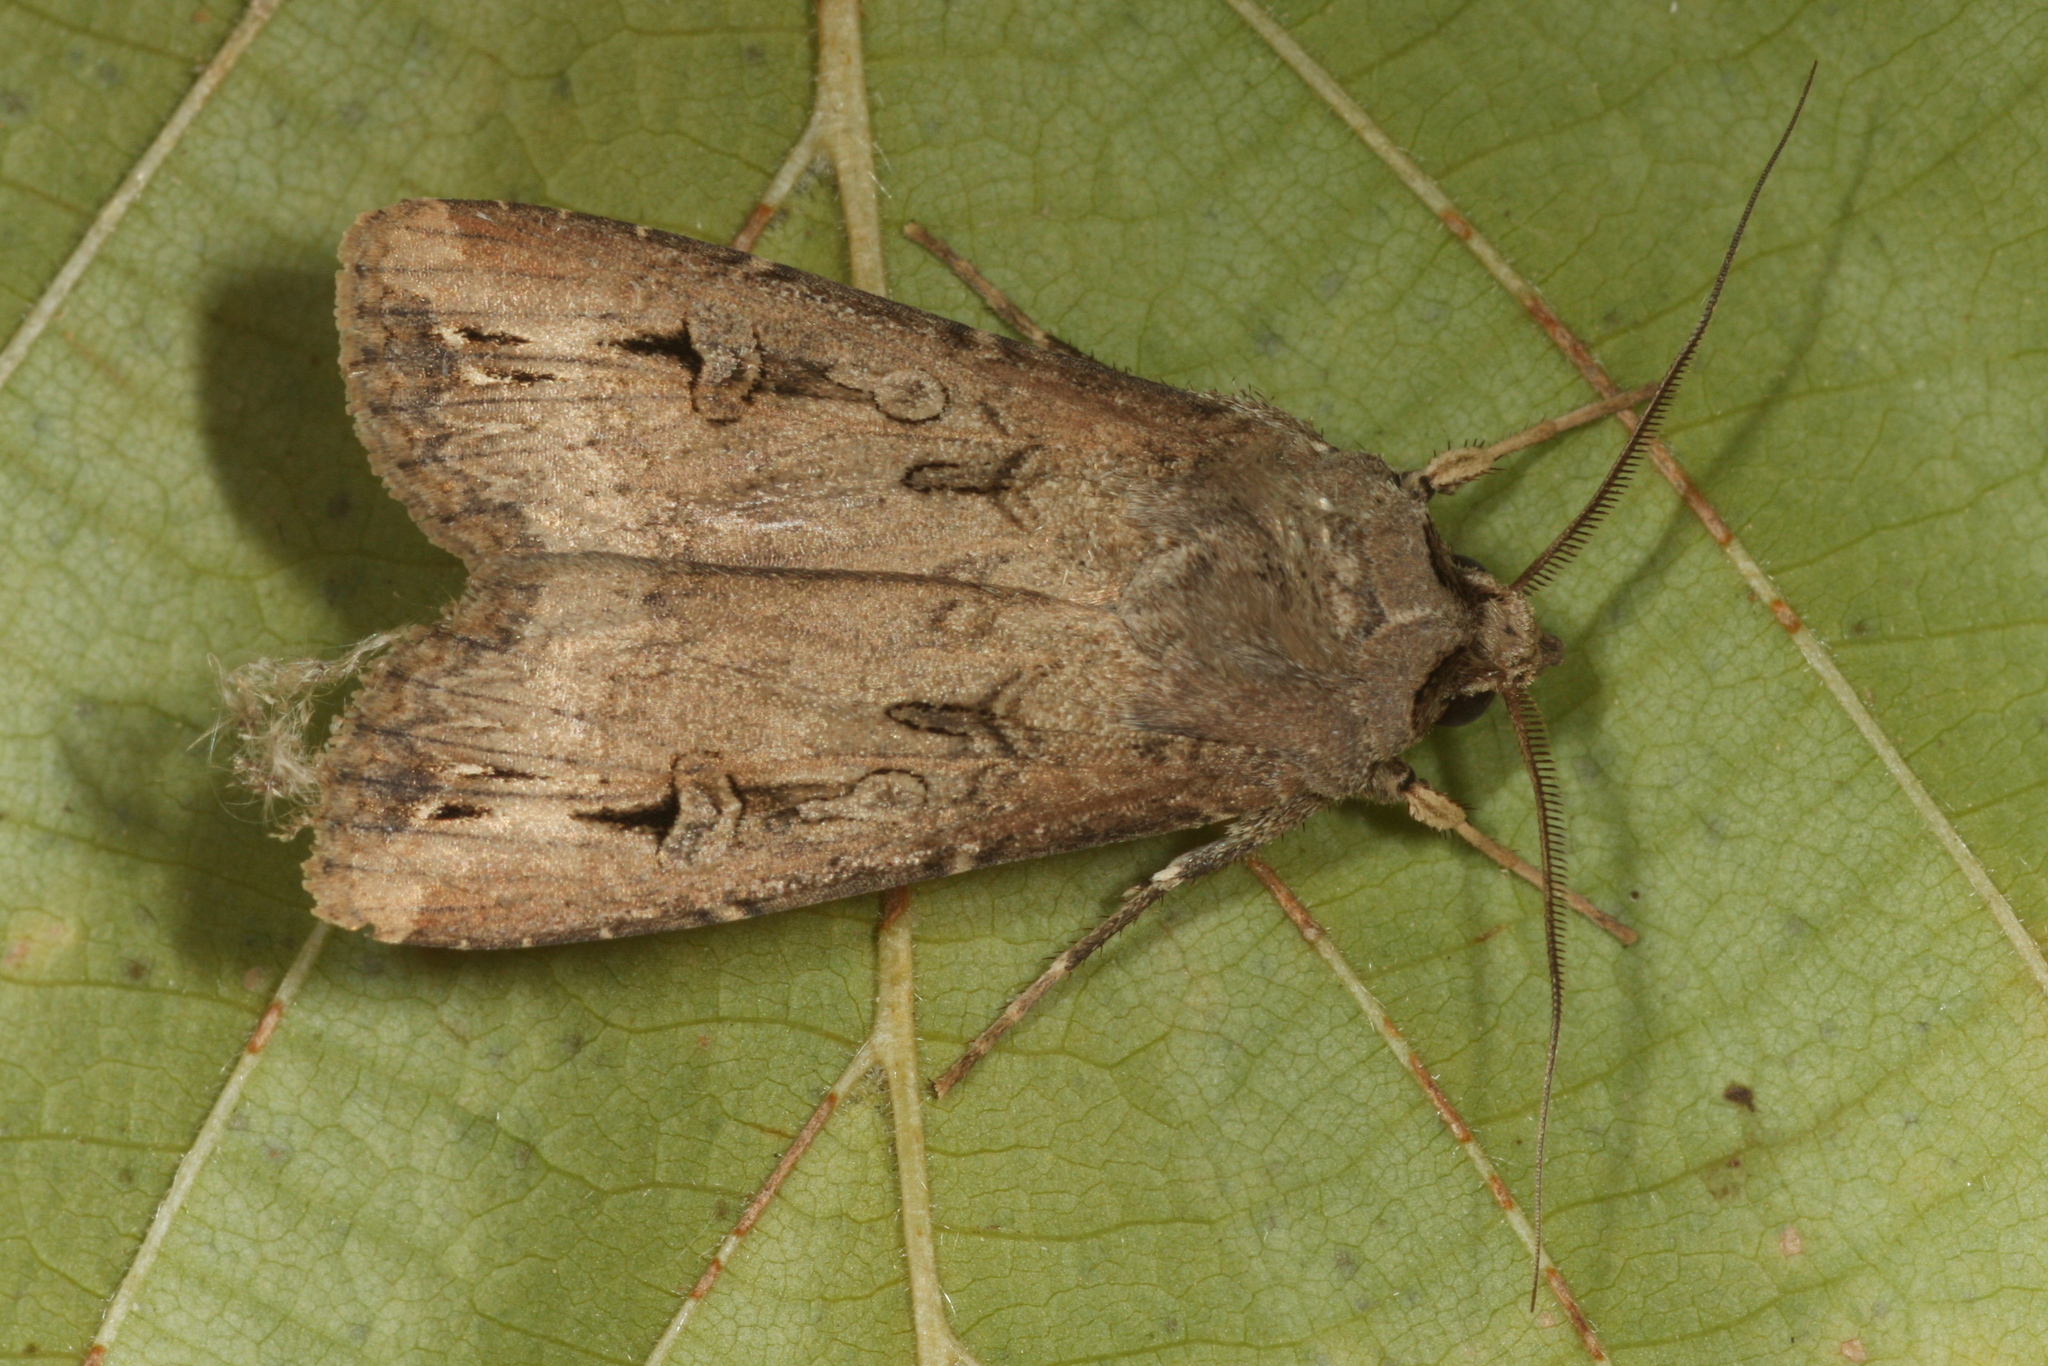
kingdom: Animalia
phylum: Arthropoda
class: Insecta
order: Lepidoptera
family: Noctuidae
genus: Agrotis
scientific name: Agrotis ipsilon
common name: Dark sword-grass
